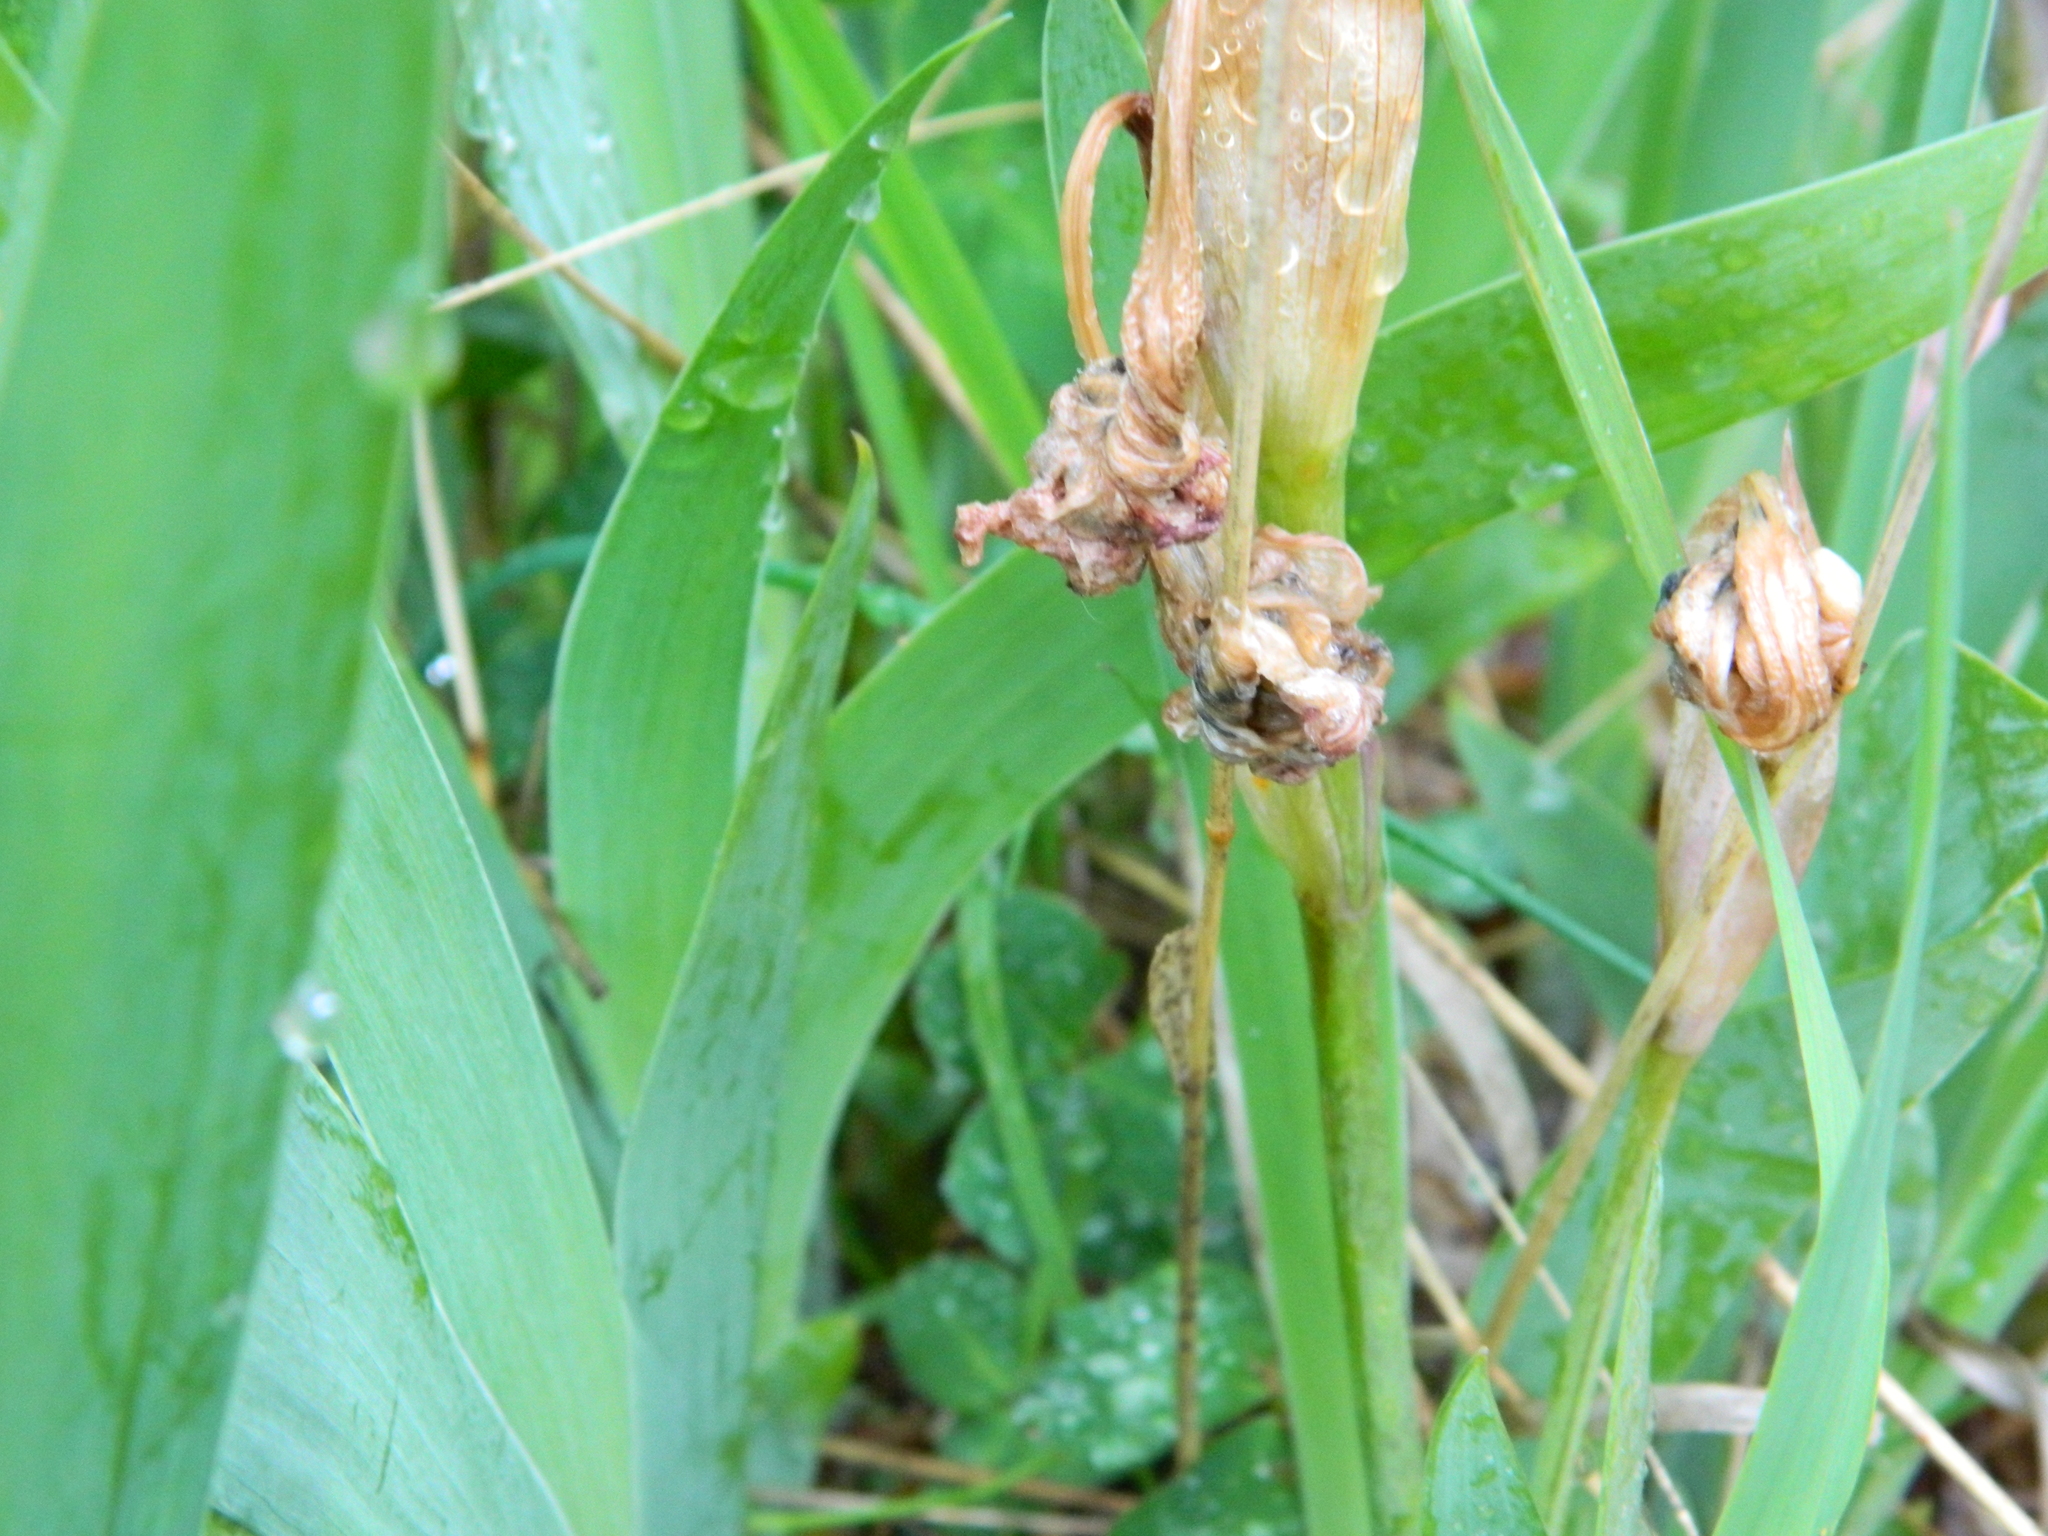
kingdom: Plantae
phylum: Tracheophyta
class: Liliopsida
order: Asparagales
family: Iridaceae
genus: Iris
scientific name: Iris hybrida
